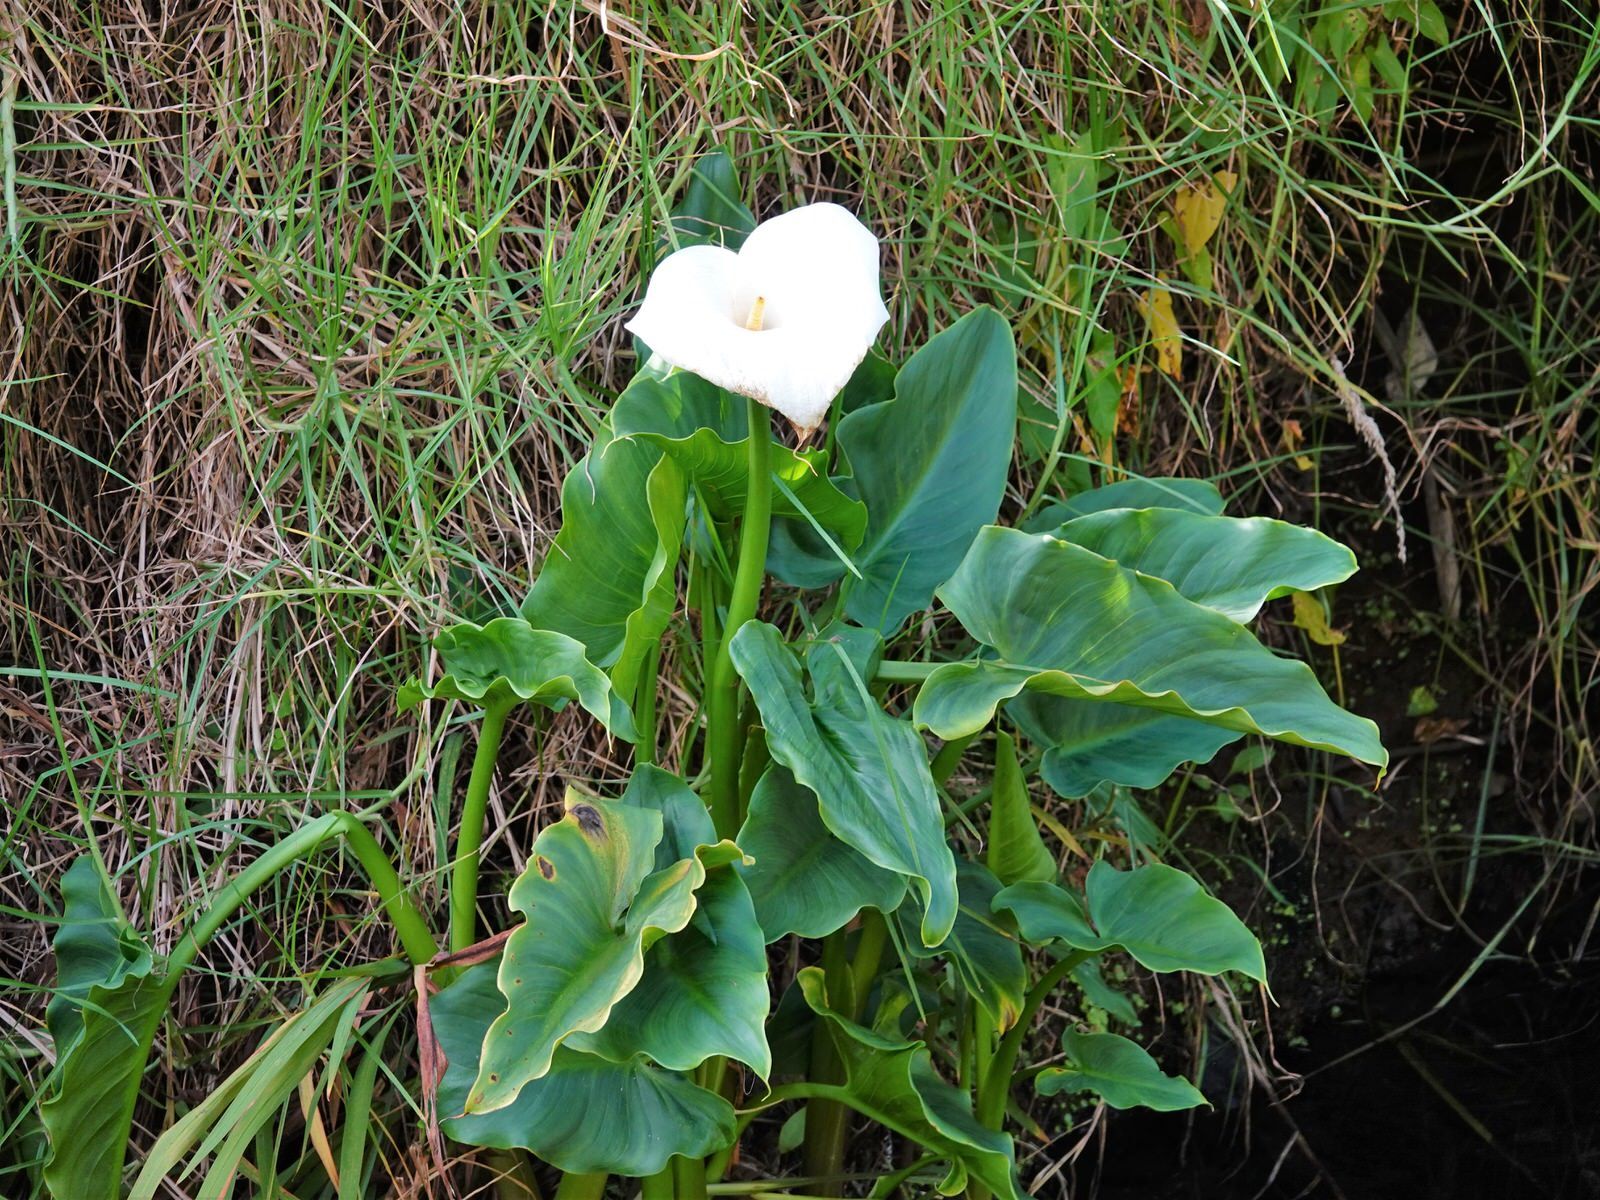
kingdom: Plantae
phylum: Tracheophyta
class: Liliopsida
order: Alismatales
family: Araceae
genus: Zantedeschia
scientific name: Zantedeschia aethiopica
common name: Altar-lily
